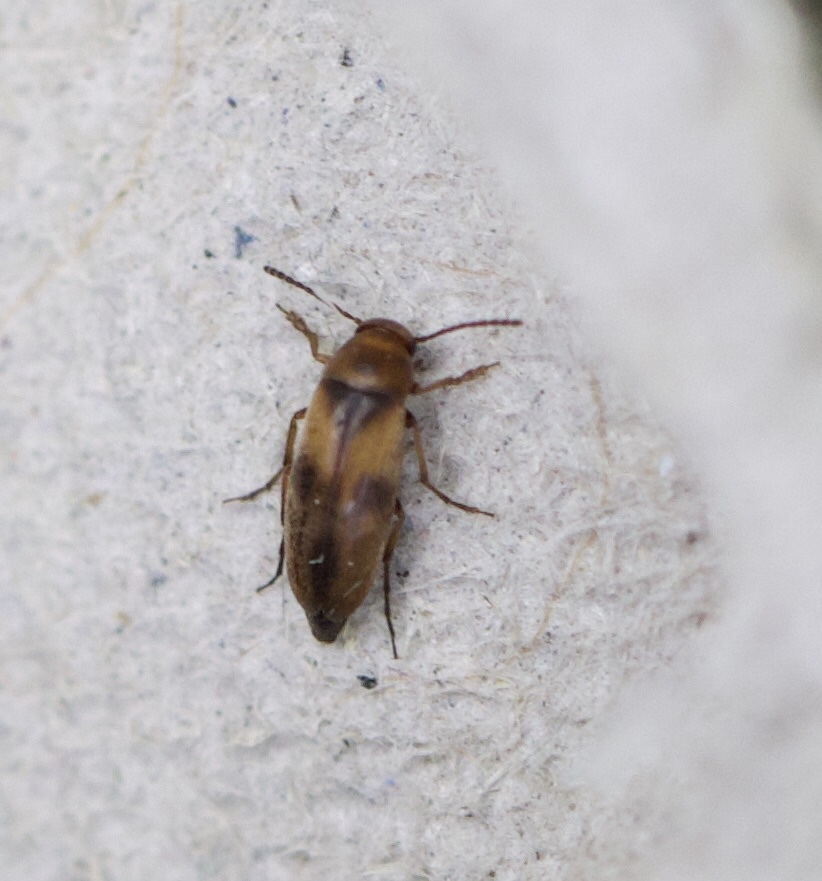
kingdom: Animalia
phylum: Arthropoda
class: Insecta
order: Coleoptera
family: Scraptiidae
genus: Anaspis
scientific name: Anaspis maculata
